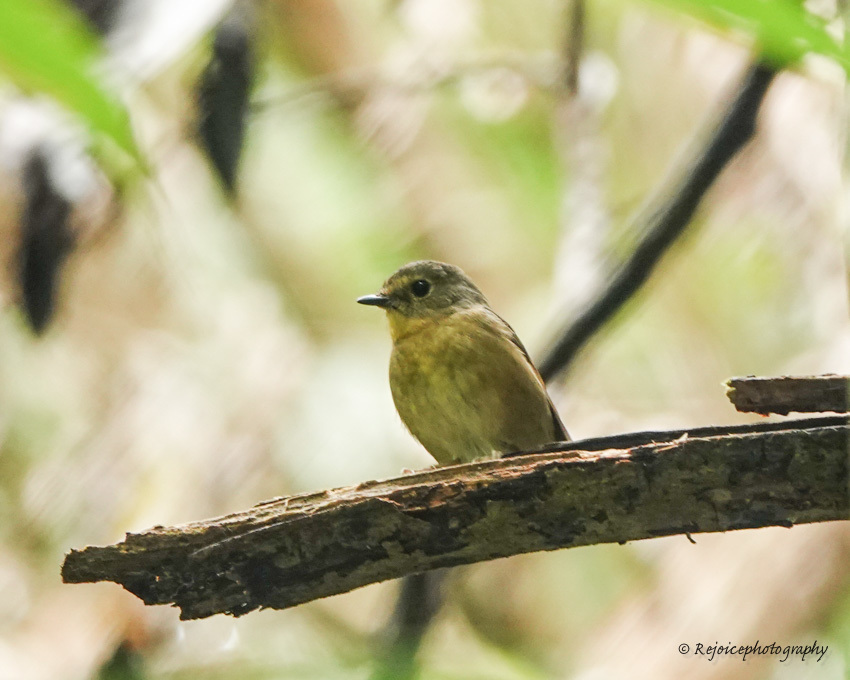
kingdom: Animalia
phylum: Chordata
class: Aves
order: Passeriformes
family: Muscicapidae
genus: Ficedula
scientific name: Ficedula hyperythra
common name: Snowy-browed flycatcher
